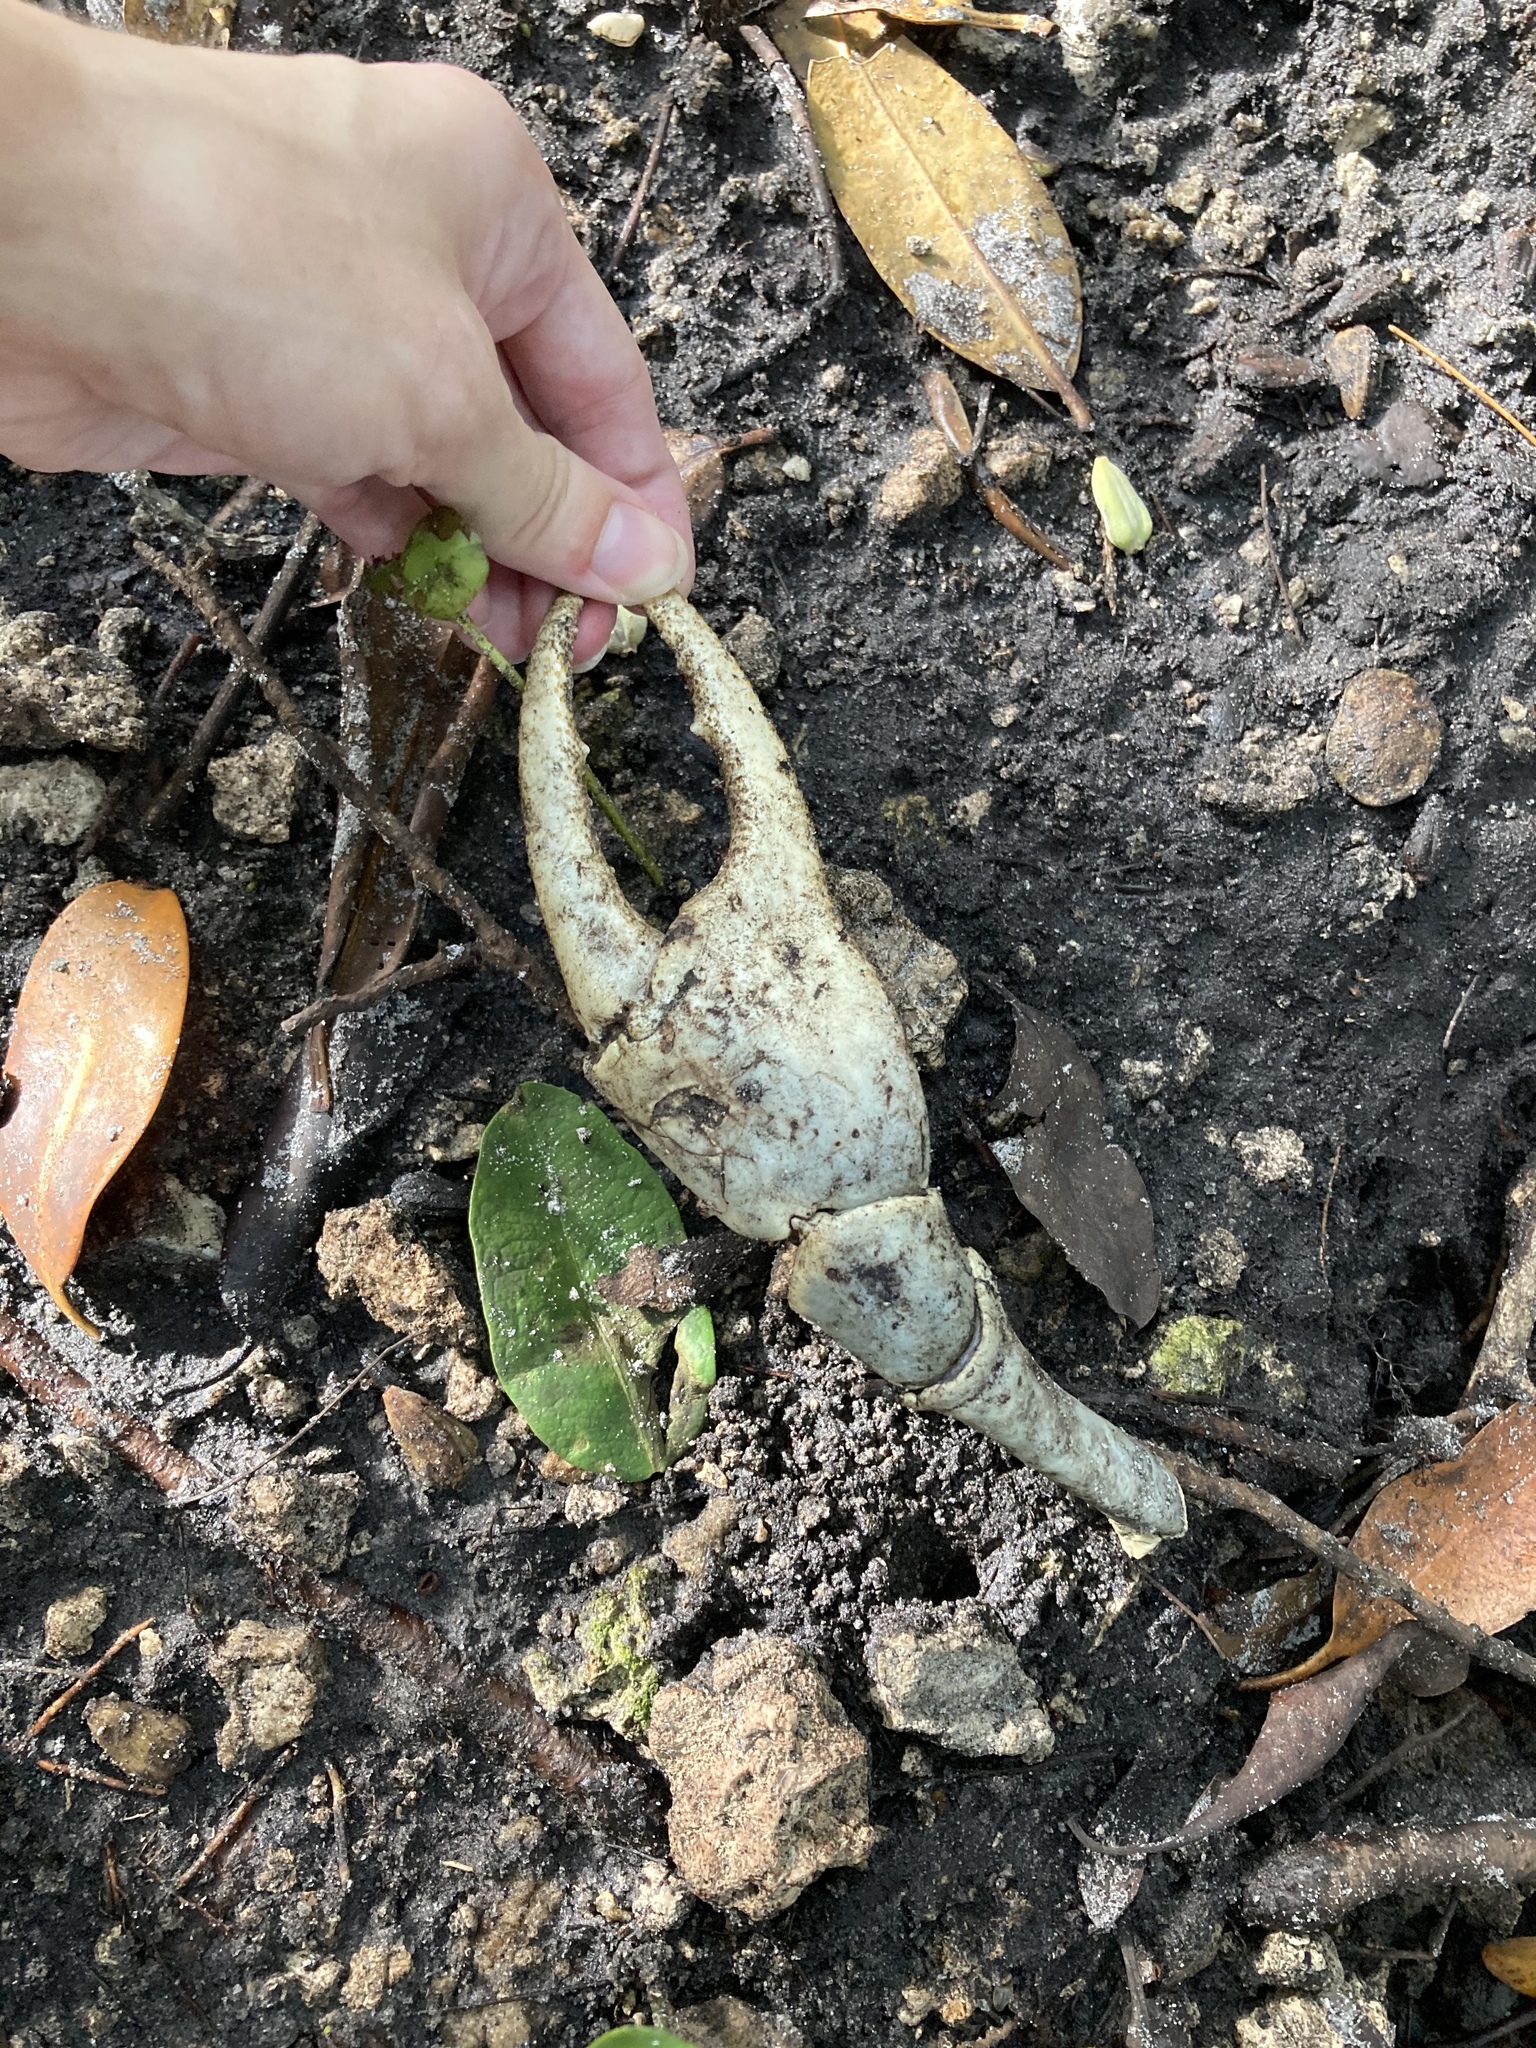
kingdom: Animalia
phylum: Arthropoda
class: Malacostraca
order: Decapoda
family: Gecarcinidae
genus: Cardisoma
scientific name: Cardisoma guanhumi
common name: Great land crab
